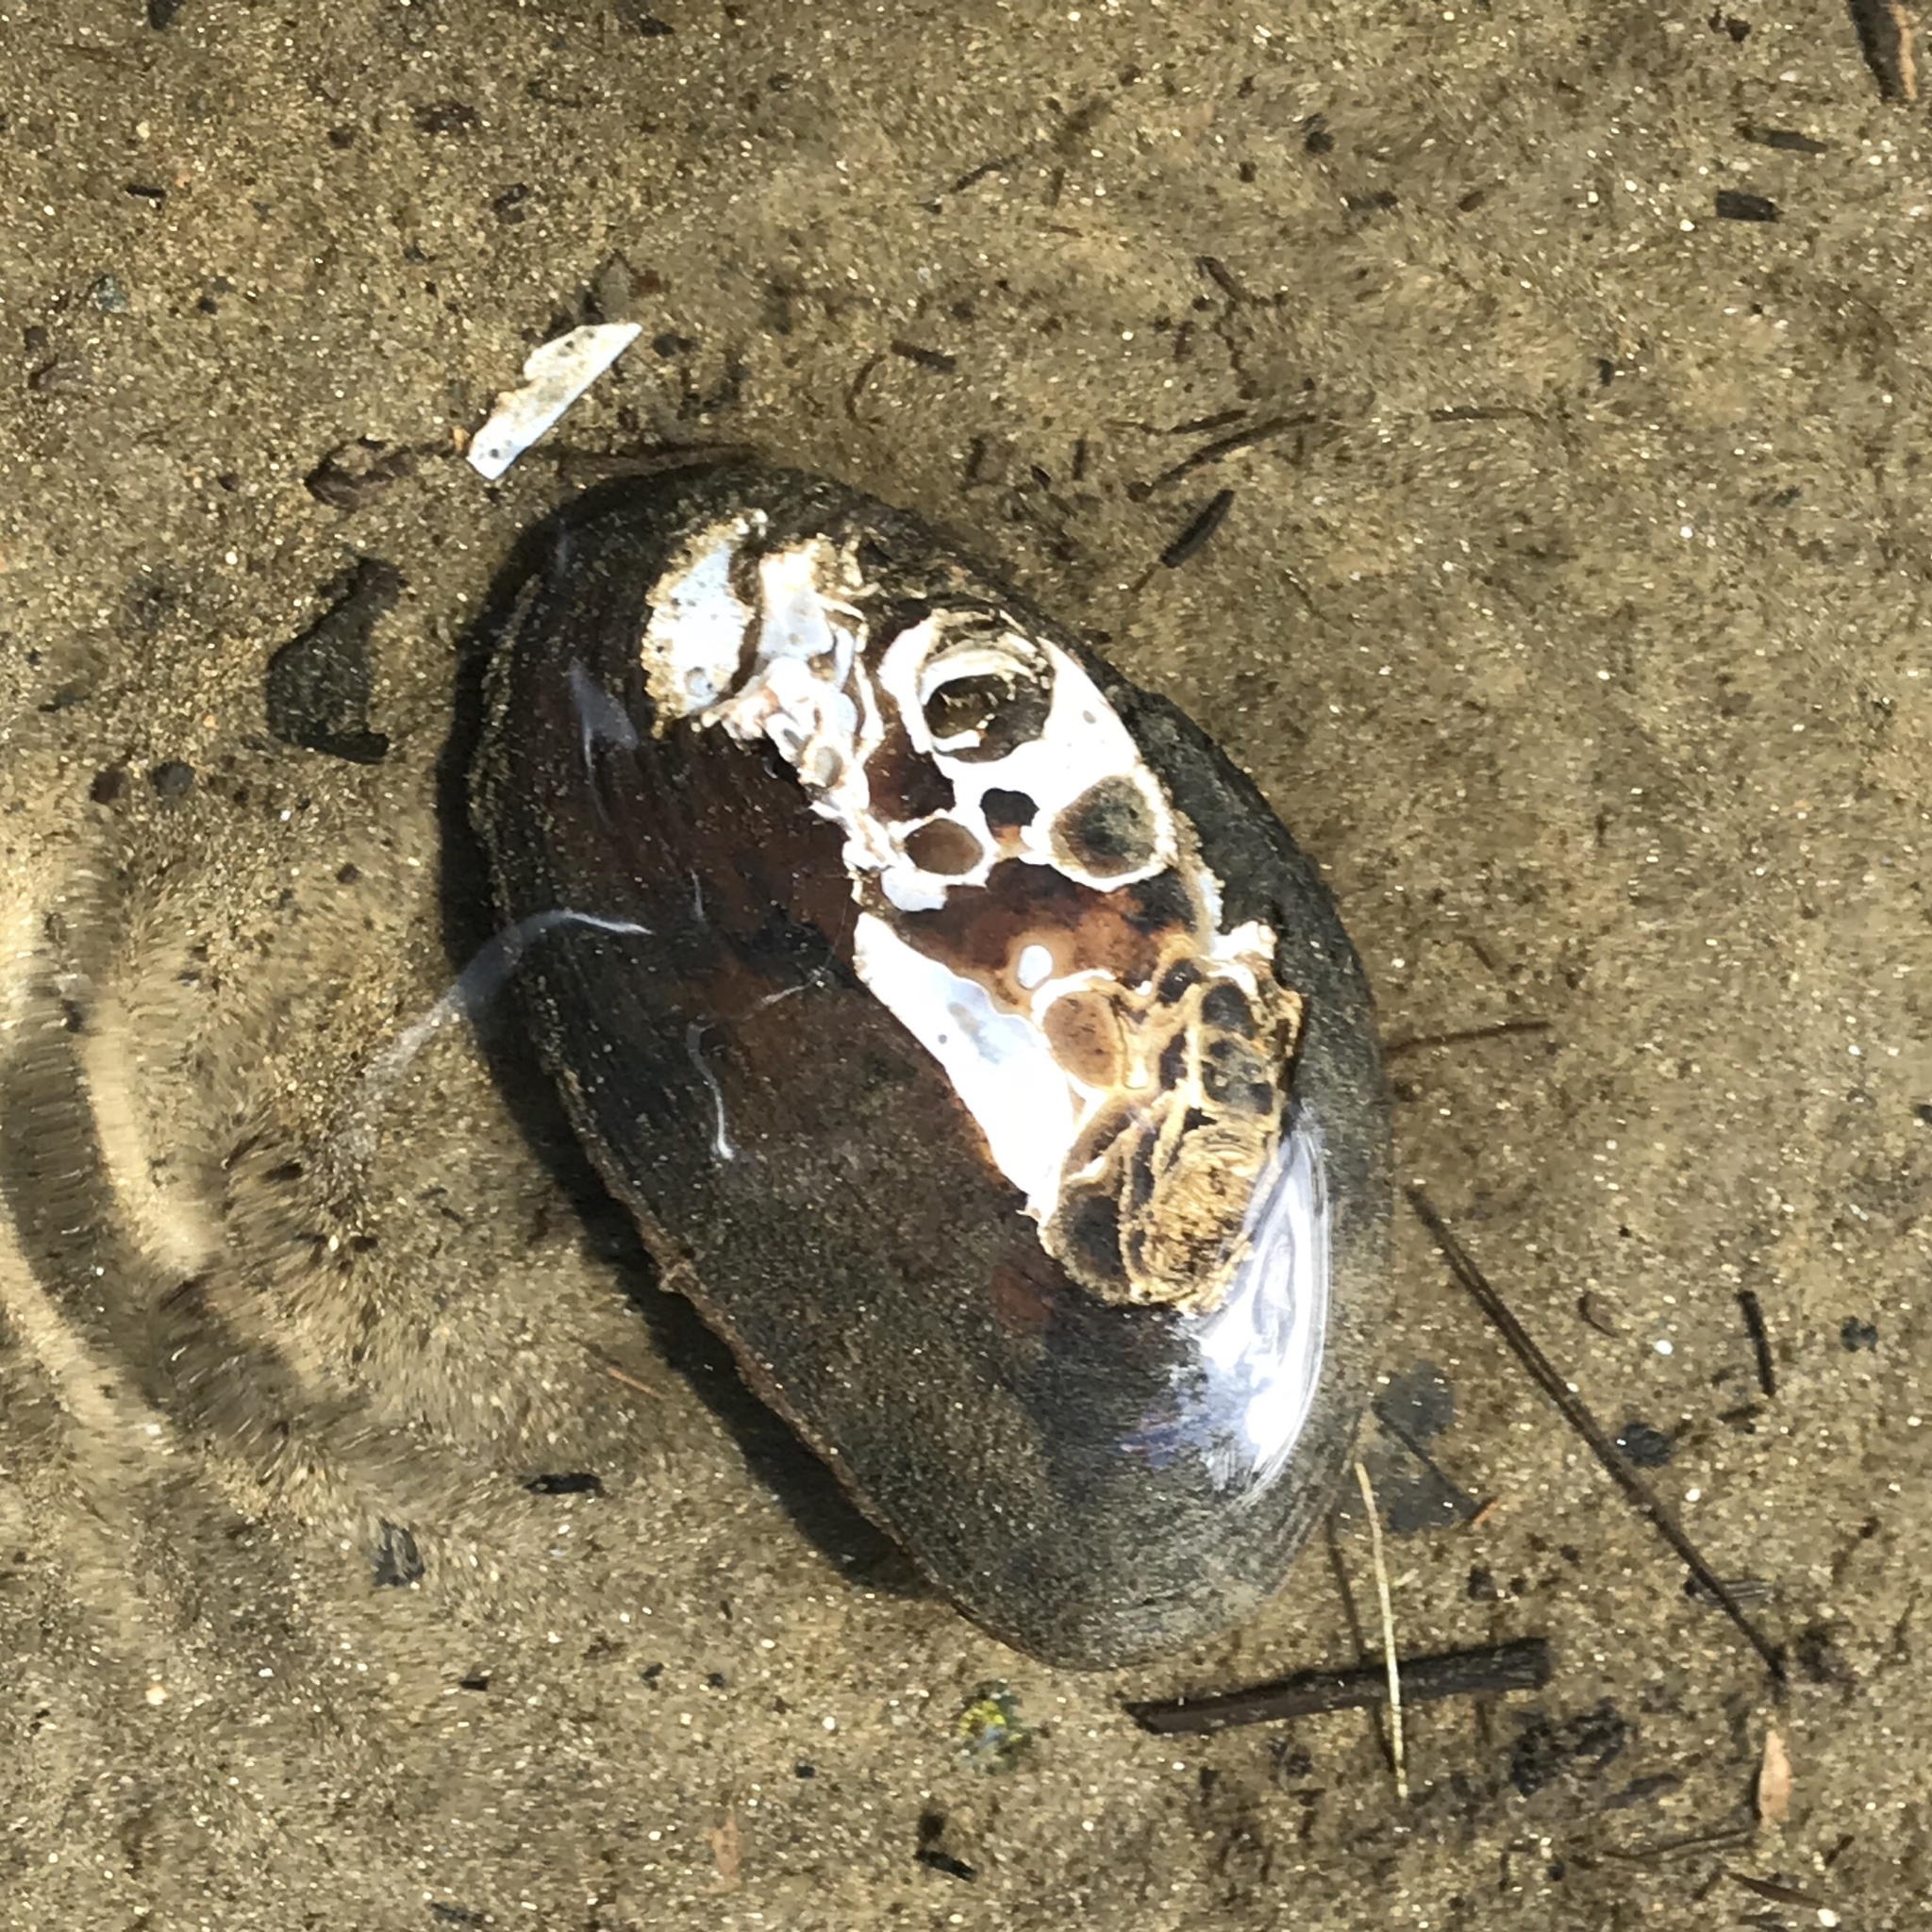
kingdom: Animalia
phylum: Mollusca
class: Bivalvia
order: Unionida
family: Unionidae
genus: Elliptio
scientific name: Elliptio complanata
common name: Eastern elliptio
